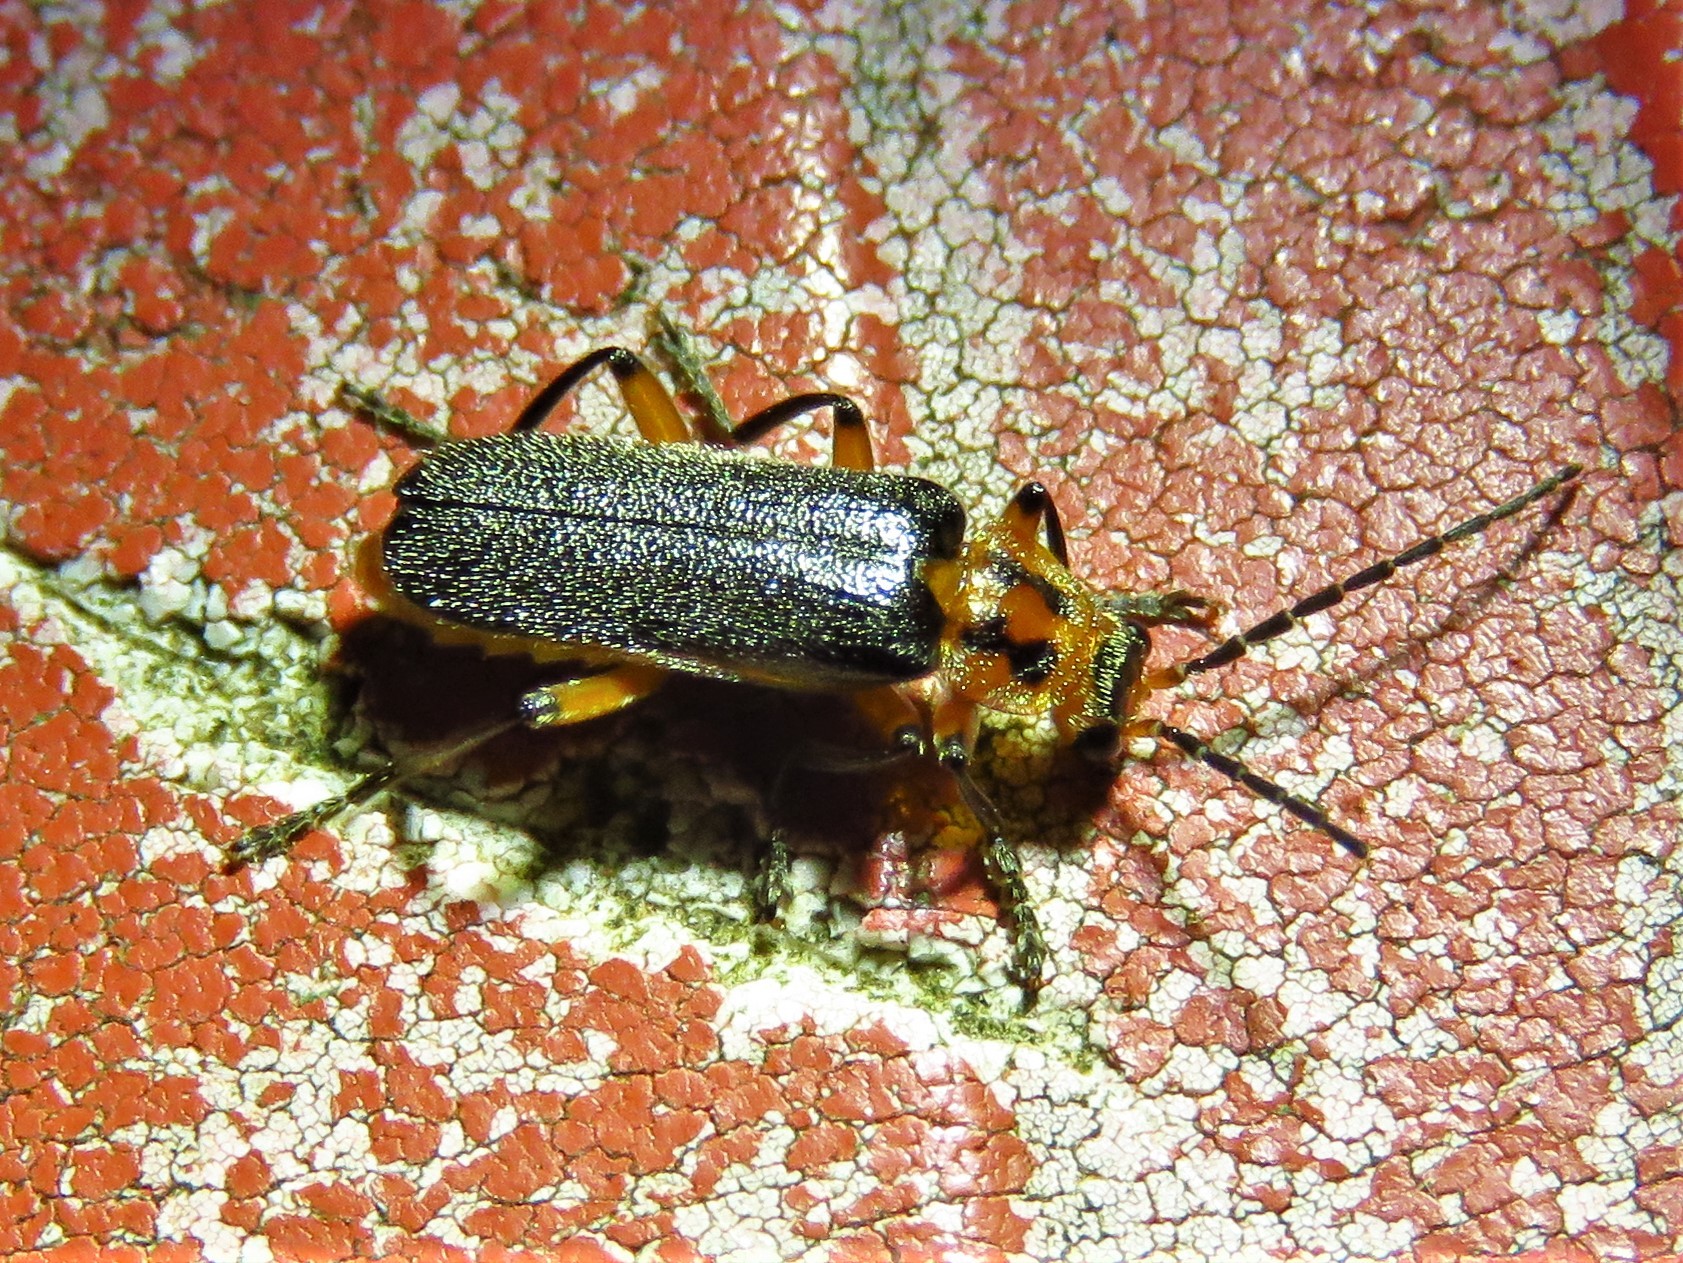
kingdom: Animalia
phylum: Arthropoda
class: Insecta
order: Coleoptera
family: Cantharidae
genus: Atalantycha
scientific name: Atalantycha bilineata
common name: Two-lined leatherwing
